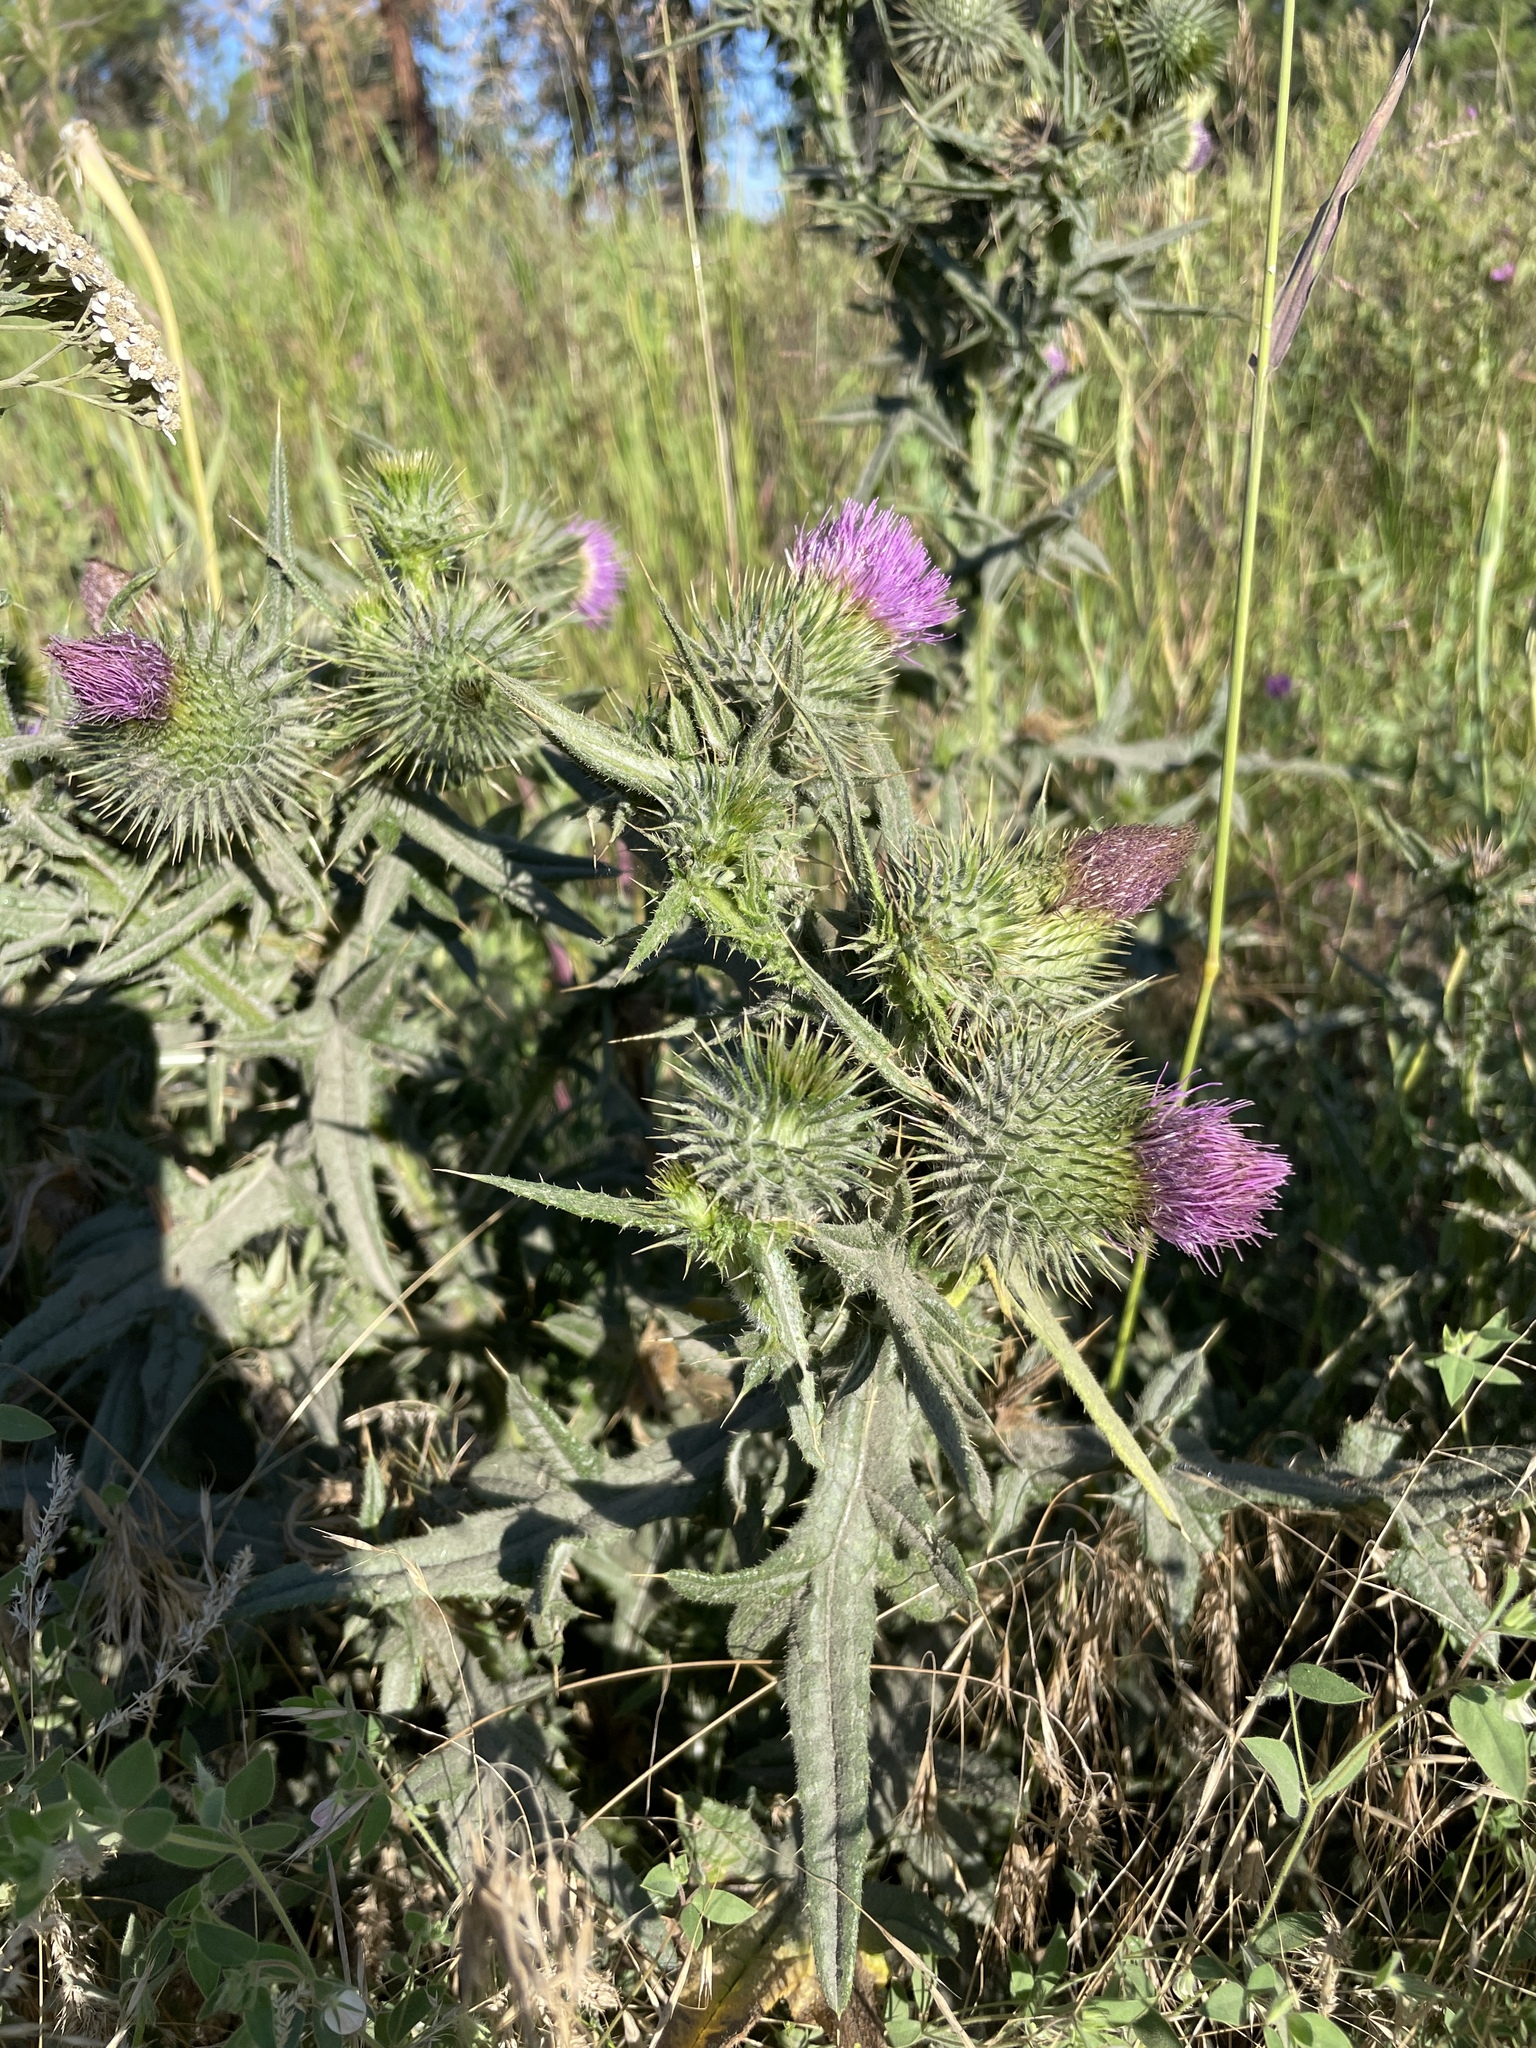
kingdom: Plantae
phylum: Tracheophyta
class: Magnoliopsida
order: Asterales
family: Asteraceae
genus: Cirsium
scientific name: Cirsium vulgare
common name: Bull thistle
